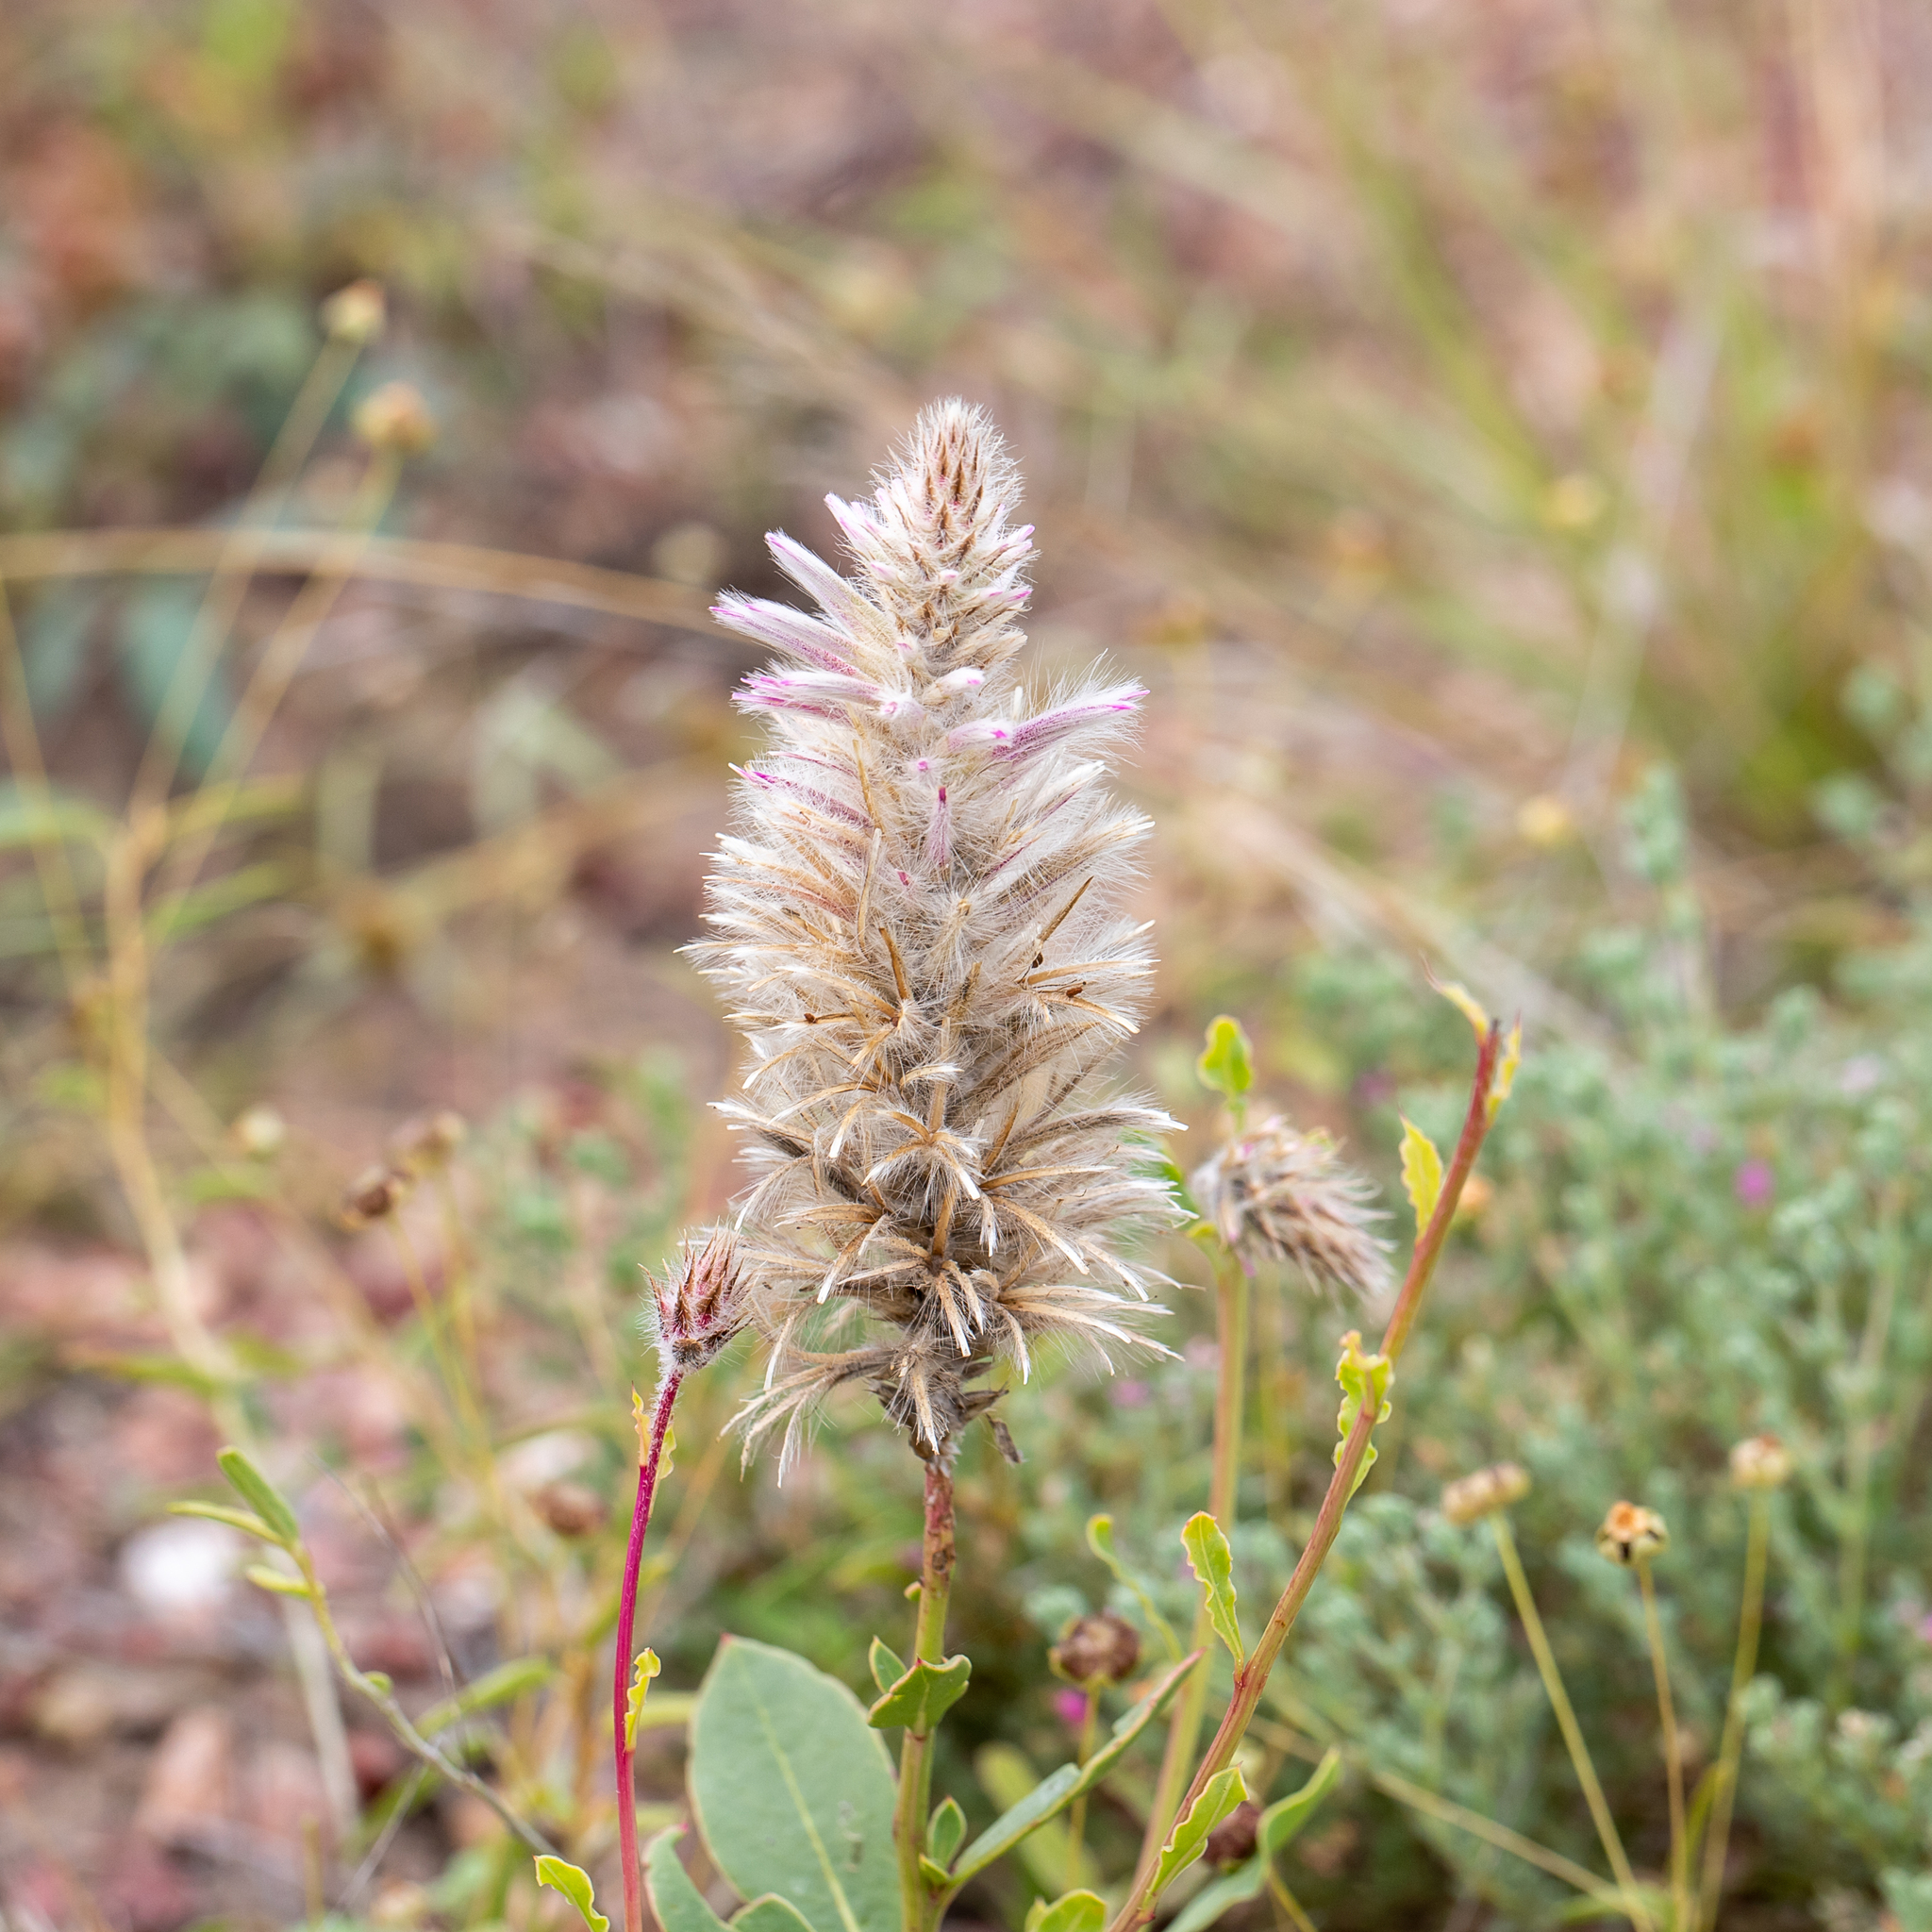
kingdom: Plantae
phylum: Tracheophyta
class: Magnoliopsida
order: Caryophyllales
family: Amaranthaceae
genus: Ptilotus
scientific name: Ptilotus exaltatus
